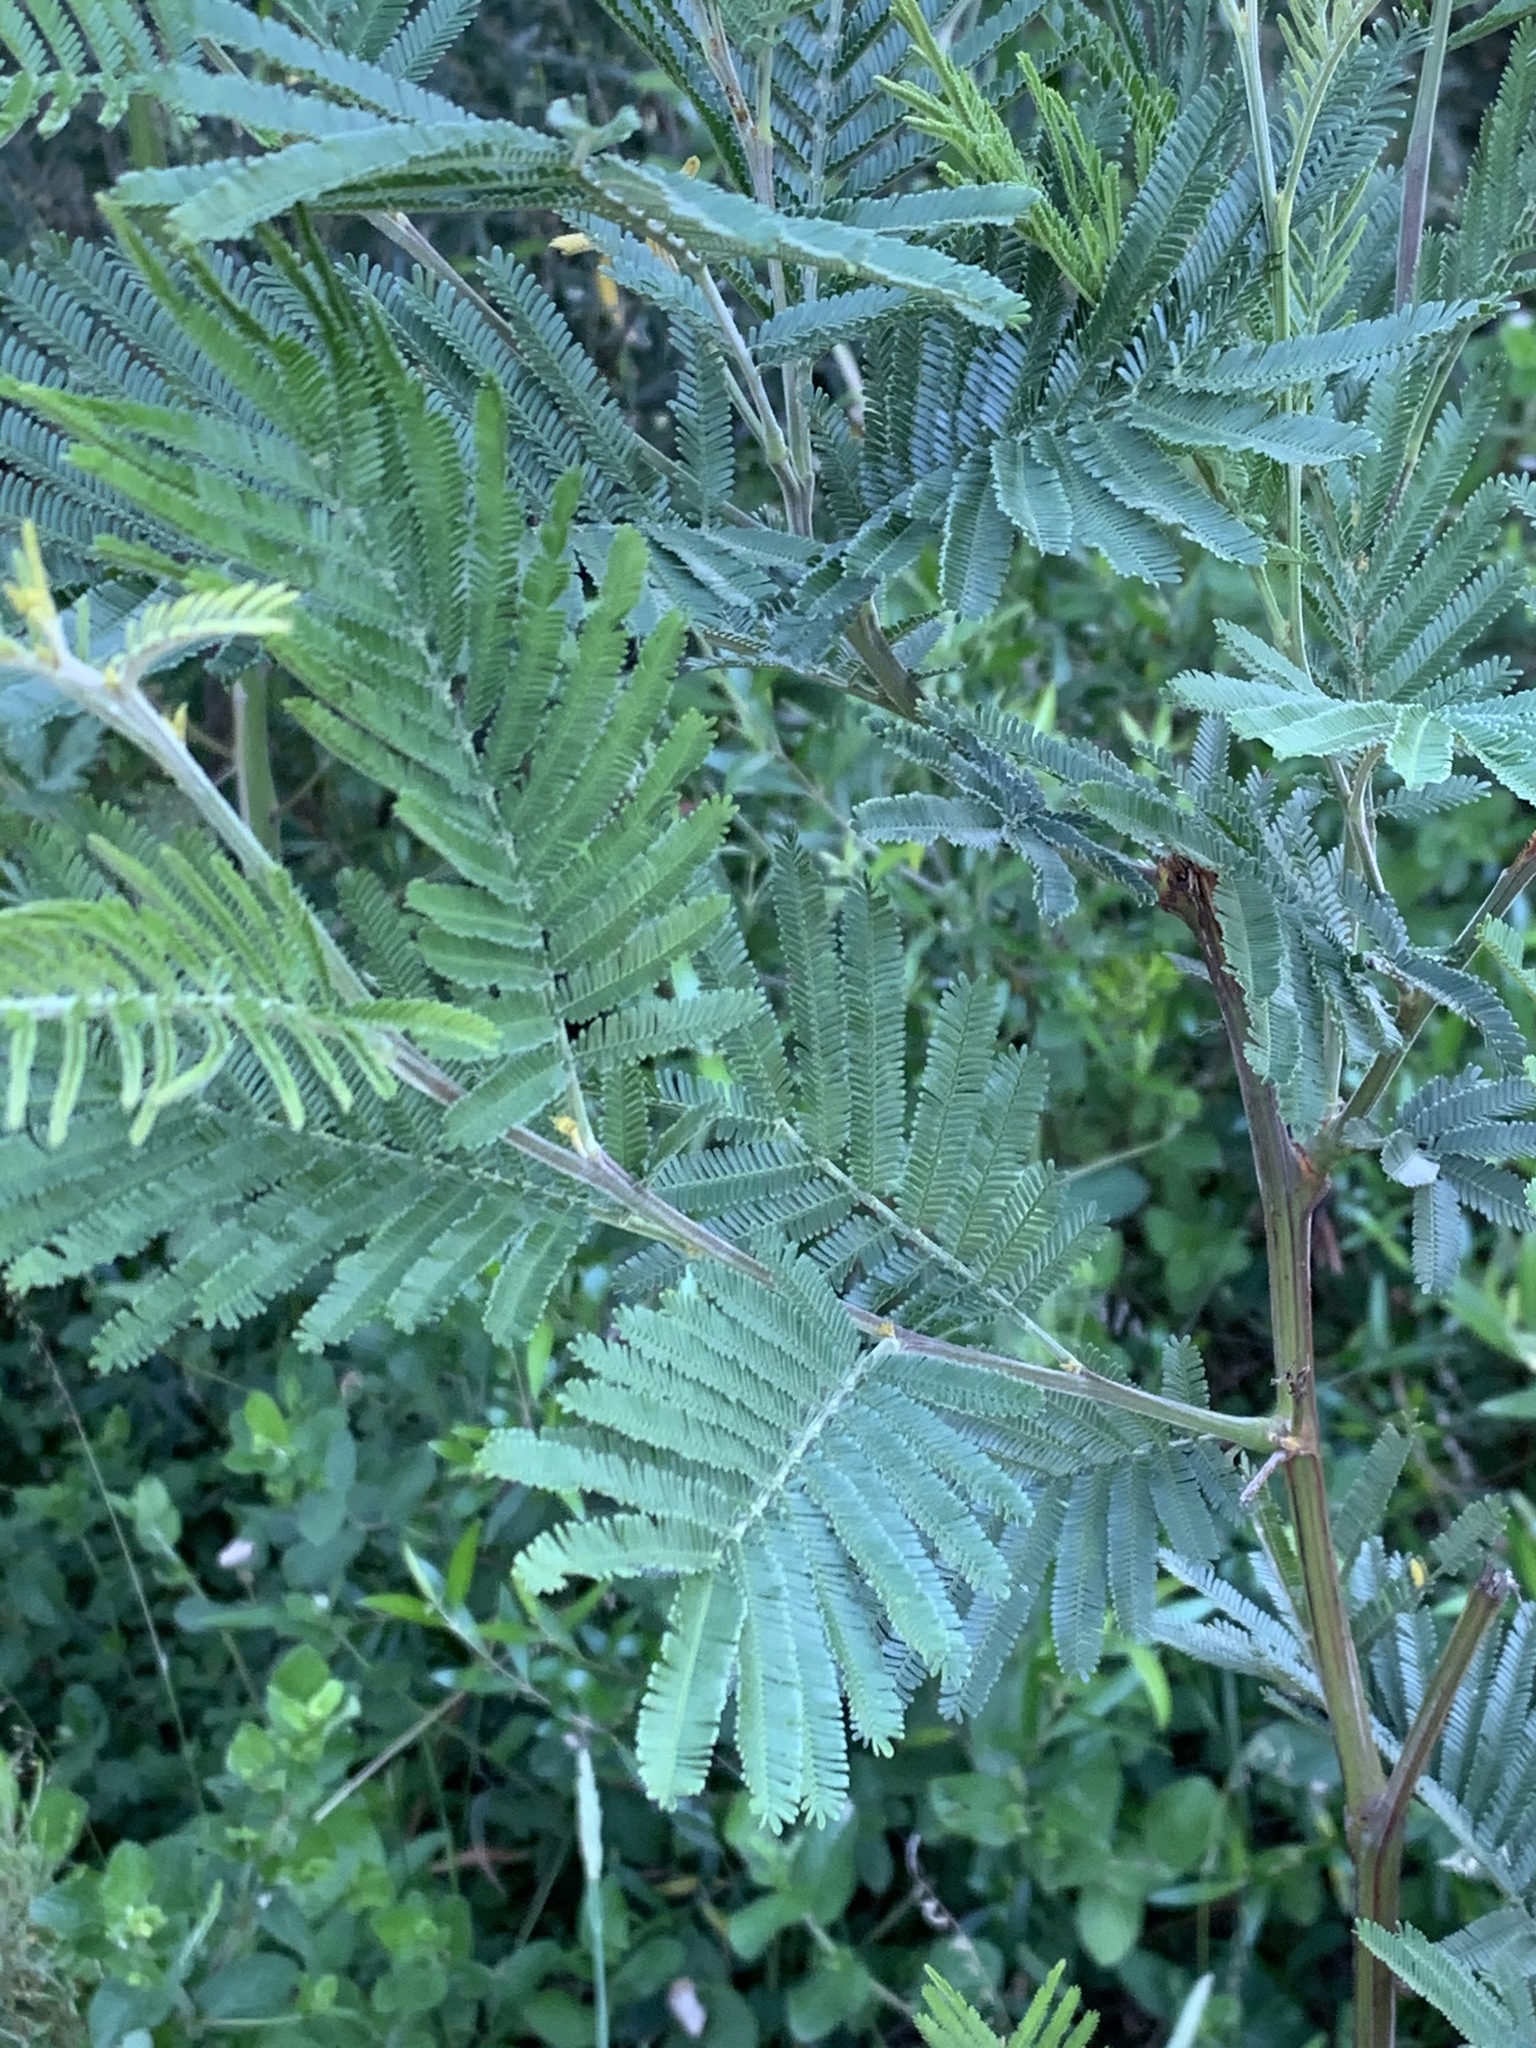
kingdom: Plantae
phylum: Tracheophyta
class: Magnoliopsida
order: Fabales
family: Fabaceae
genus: Acacia
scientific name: Acacia mearnsii
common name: Black wattle
